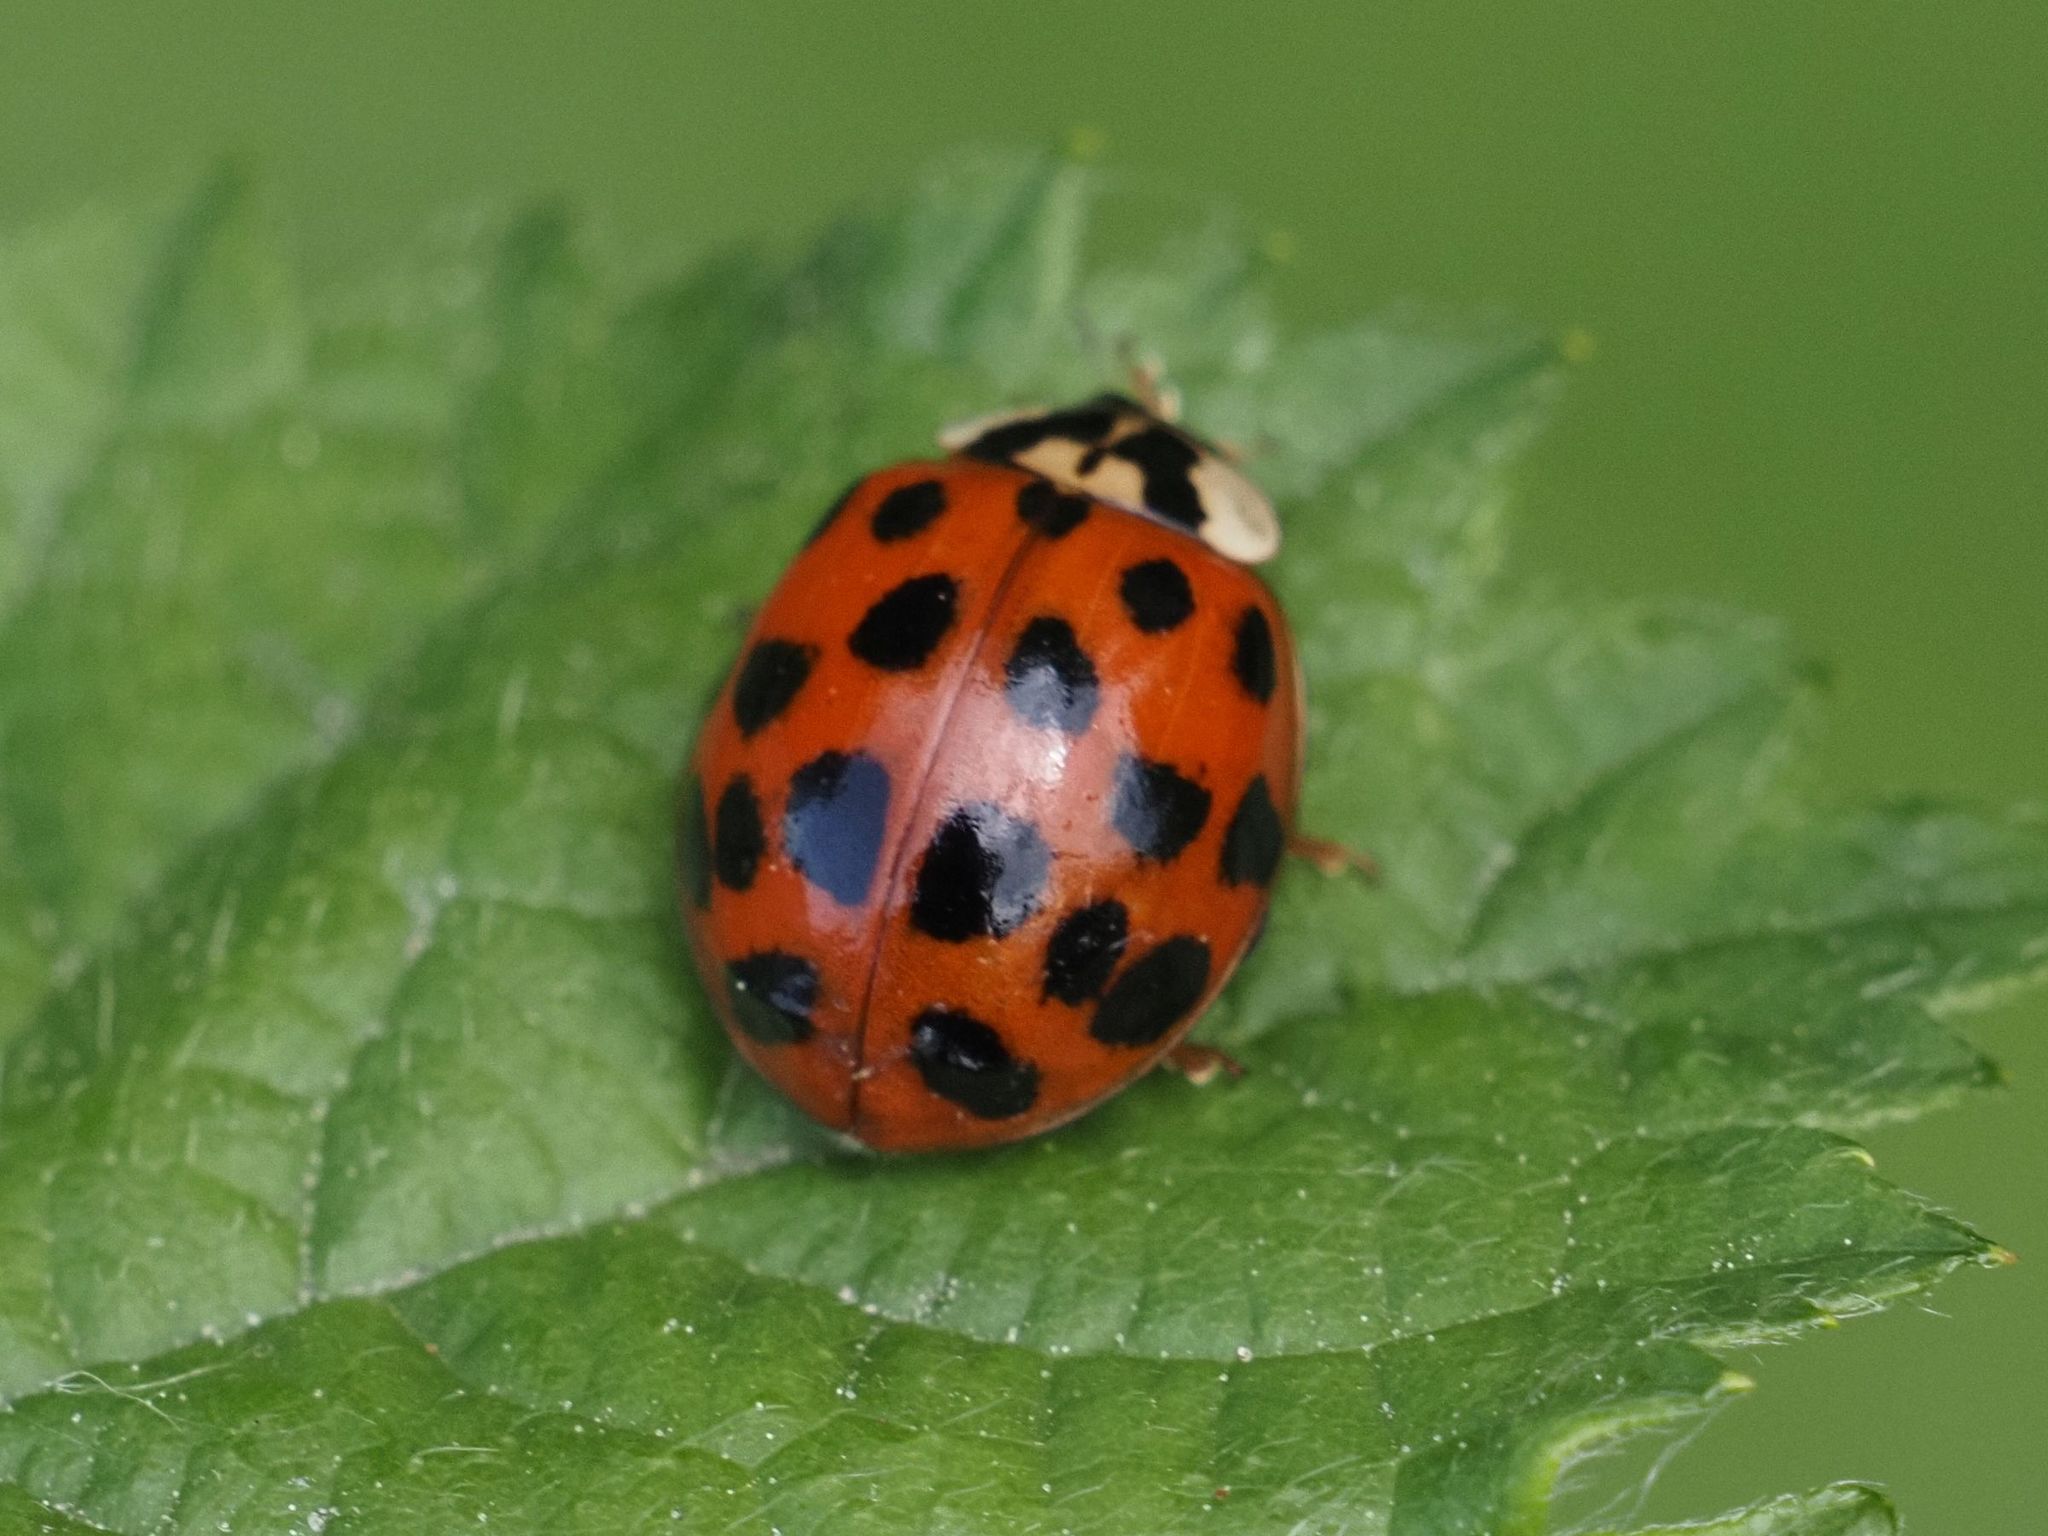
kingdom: Animalia
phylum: Arthropoda
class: Insecta
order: Coleoptera
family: Coccinellidae
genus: Harmonia
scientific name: Harmonia axyridis
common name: Harlequin ladybird
